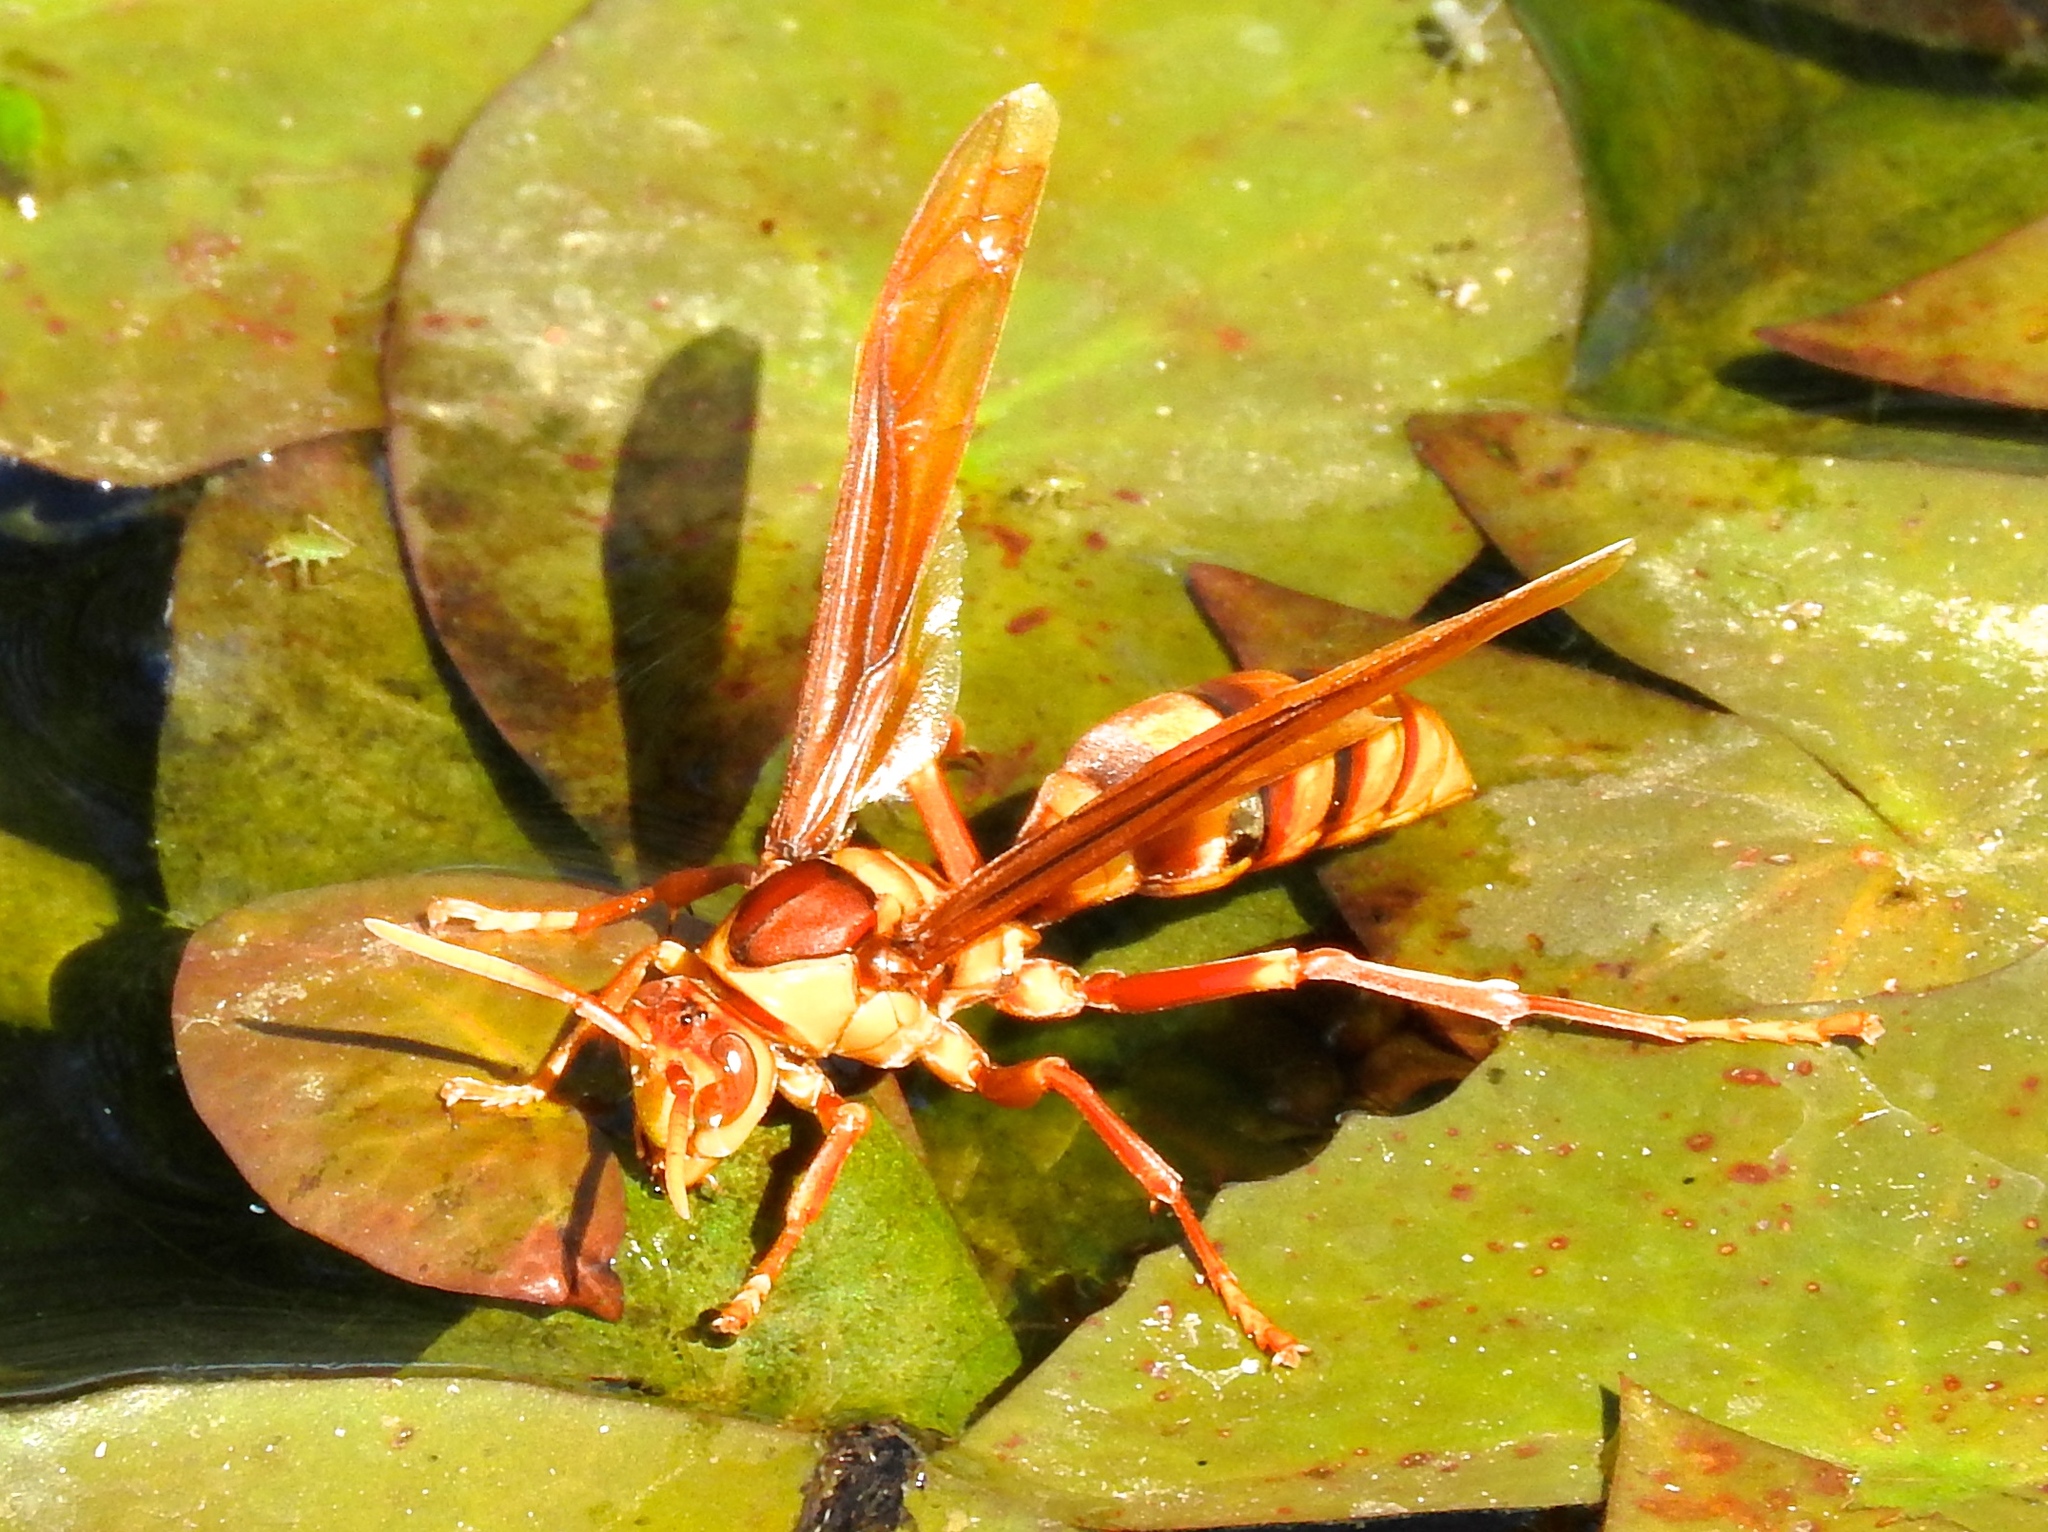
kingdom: Animalia
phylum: Arthropoda
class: Insecta
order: Hymenoptera
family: Eumenidae
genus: Polistes
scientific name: Polistes major
